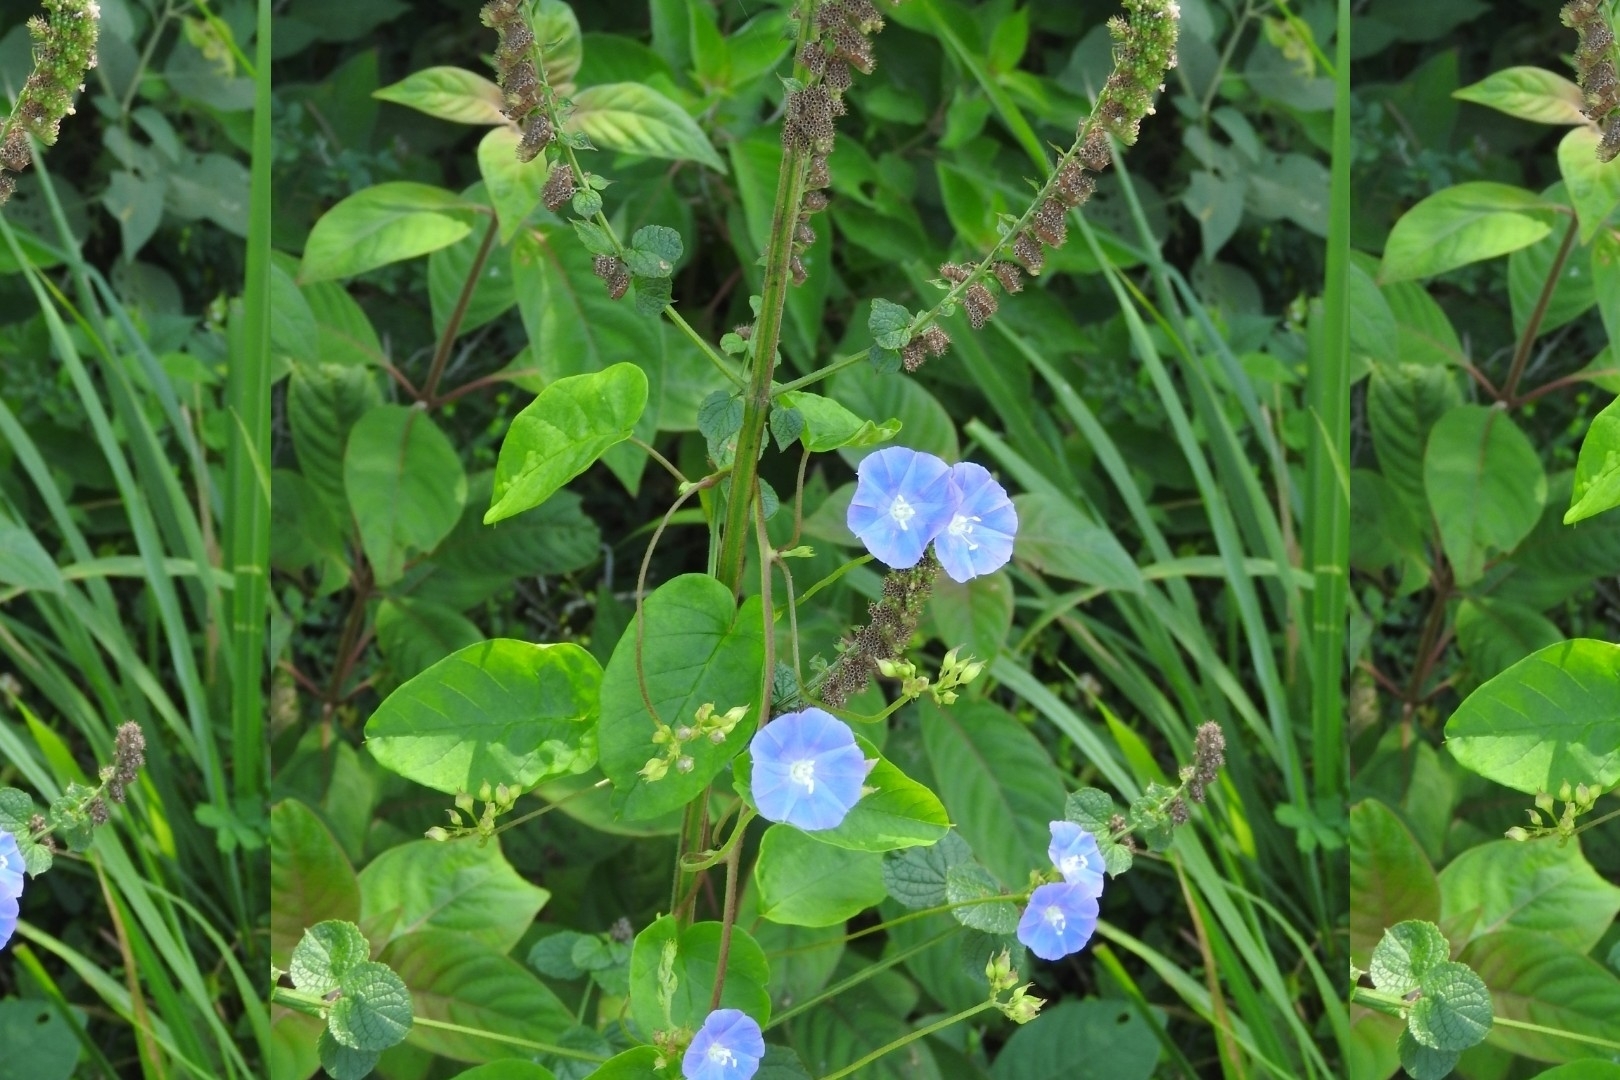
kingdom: Plantae
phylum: Tracheophyta
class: Magnoliopsida
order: Solanales
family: Convolvulaceae
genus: Jacquemontia
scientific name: Jacquemontia pentanthos
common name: Skyblue clustervine
